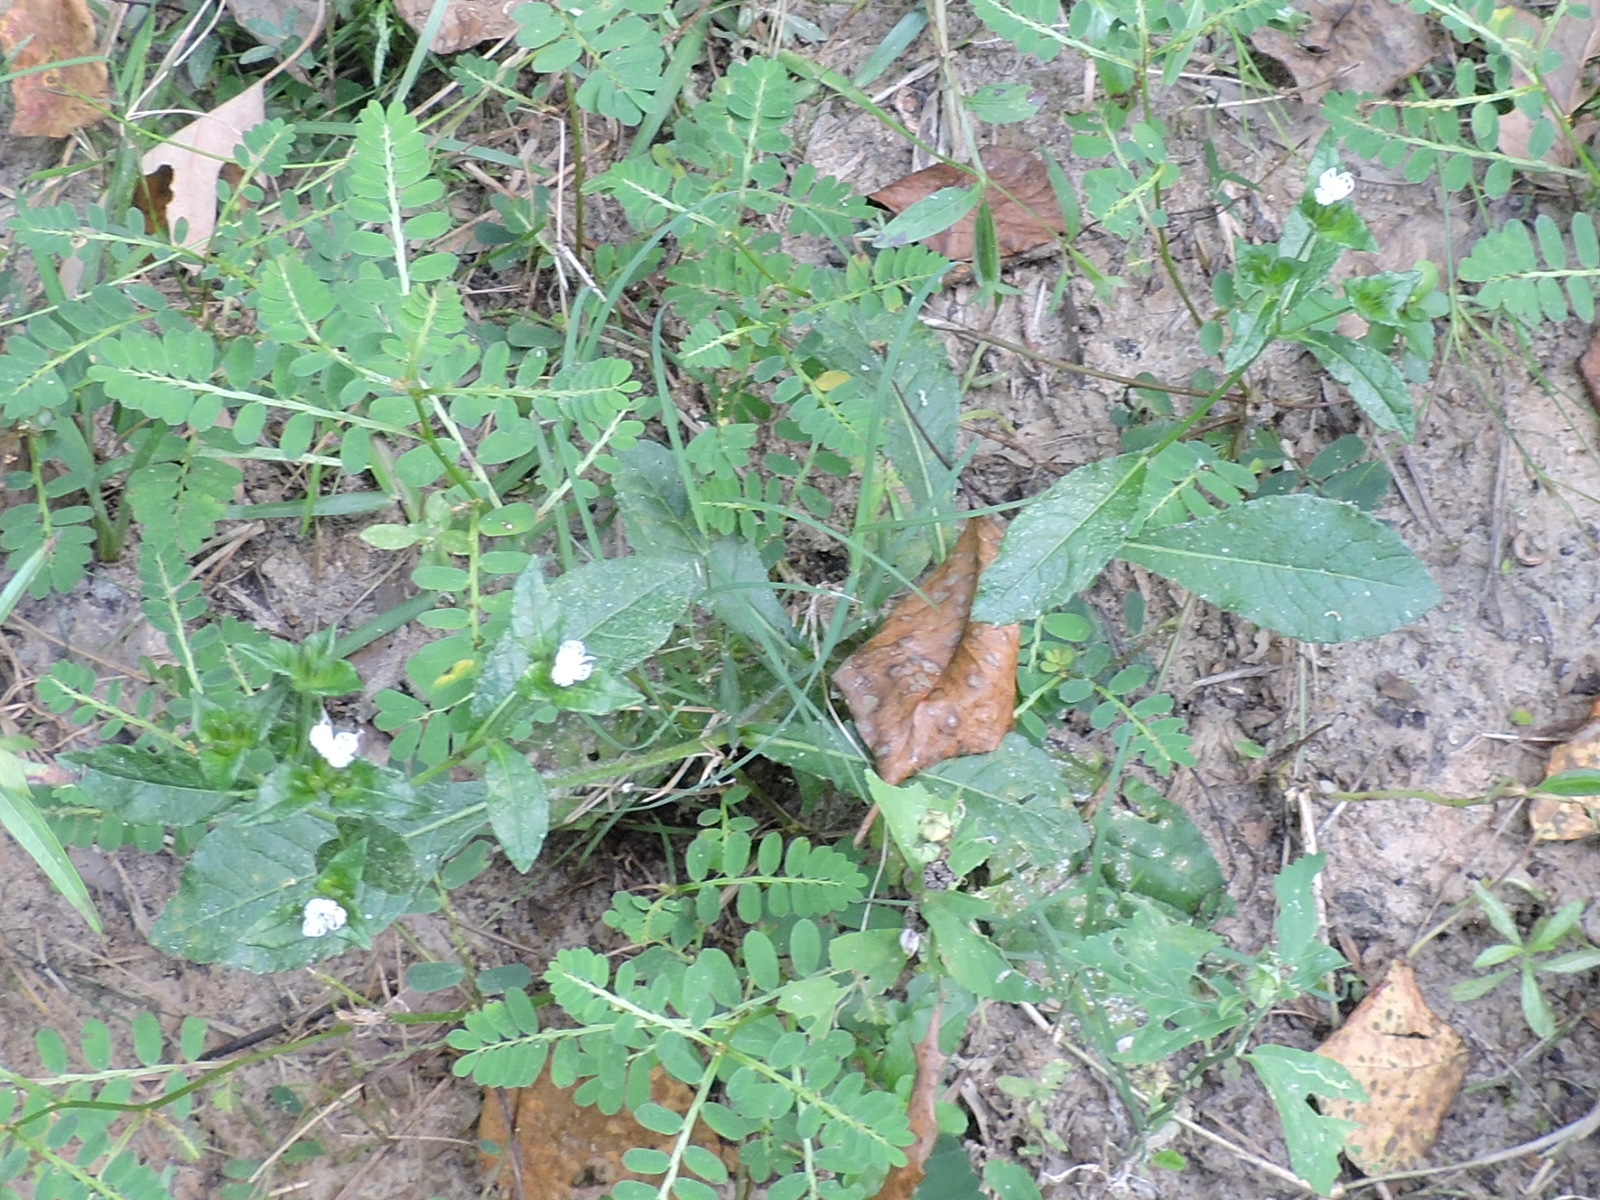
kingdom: Plantae
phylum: Tracheophyta
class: Magnoliopsida
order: Asterales
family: Asteraceae
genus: Elephantopus
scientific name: Elephantopus carolinianus
